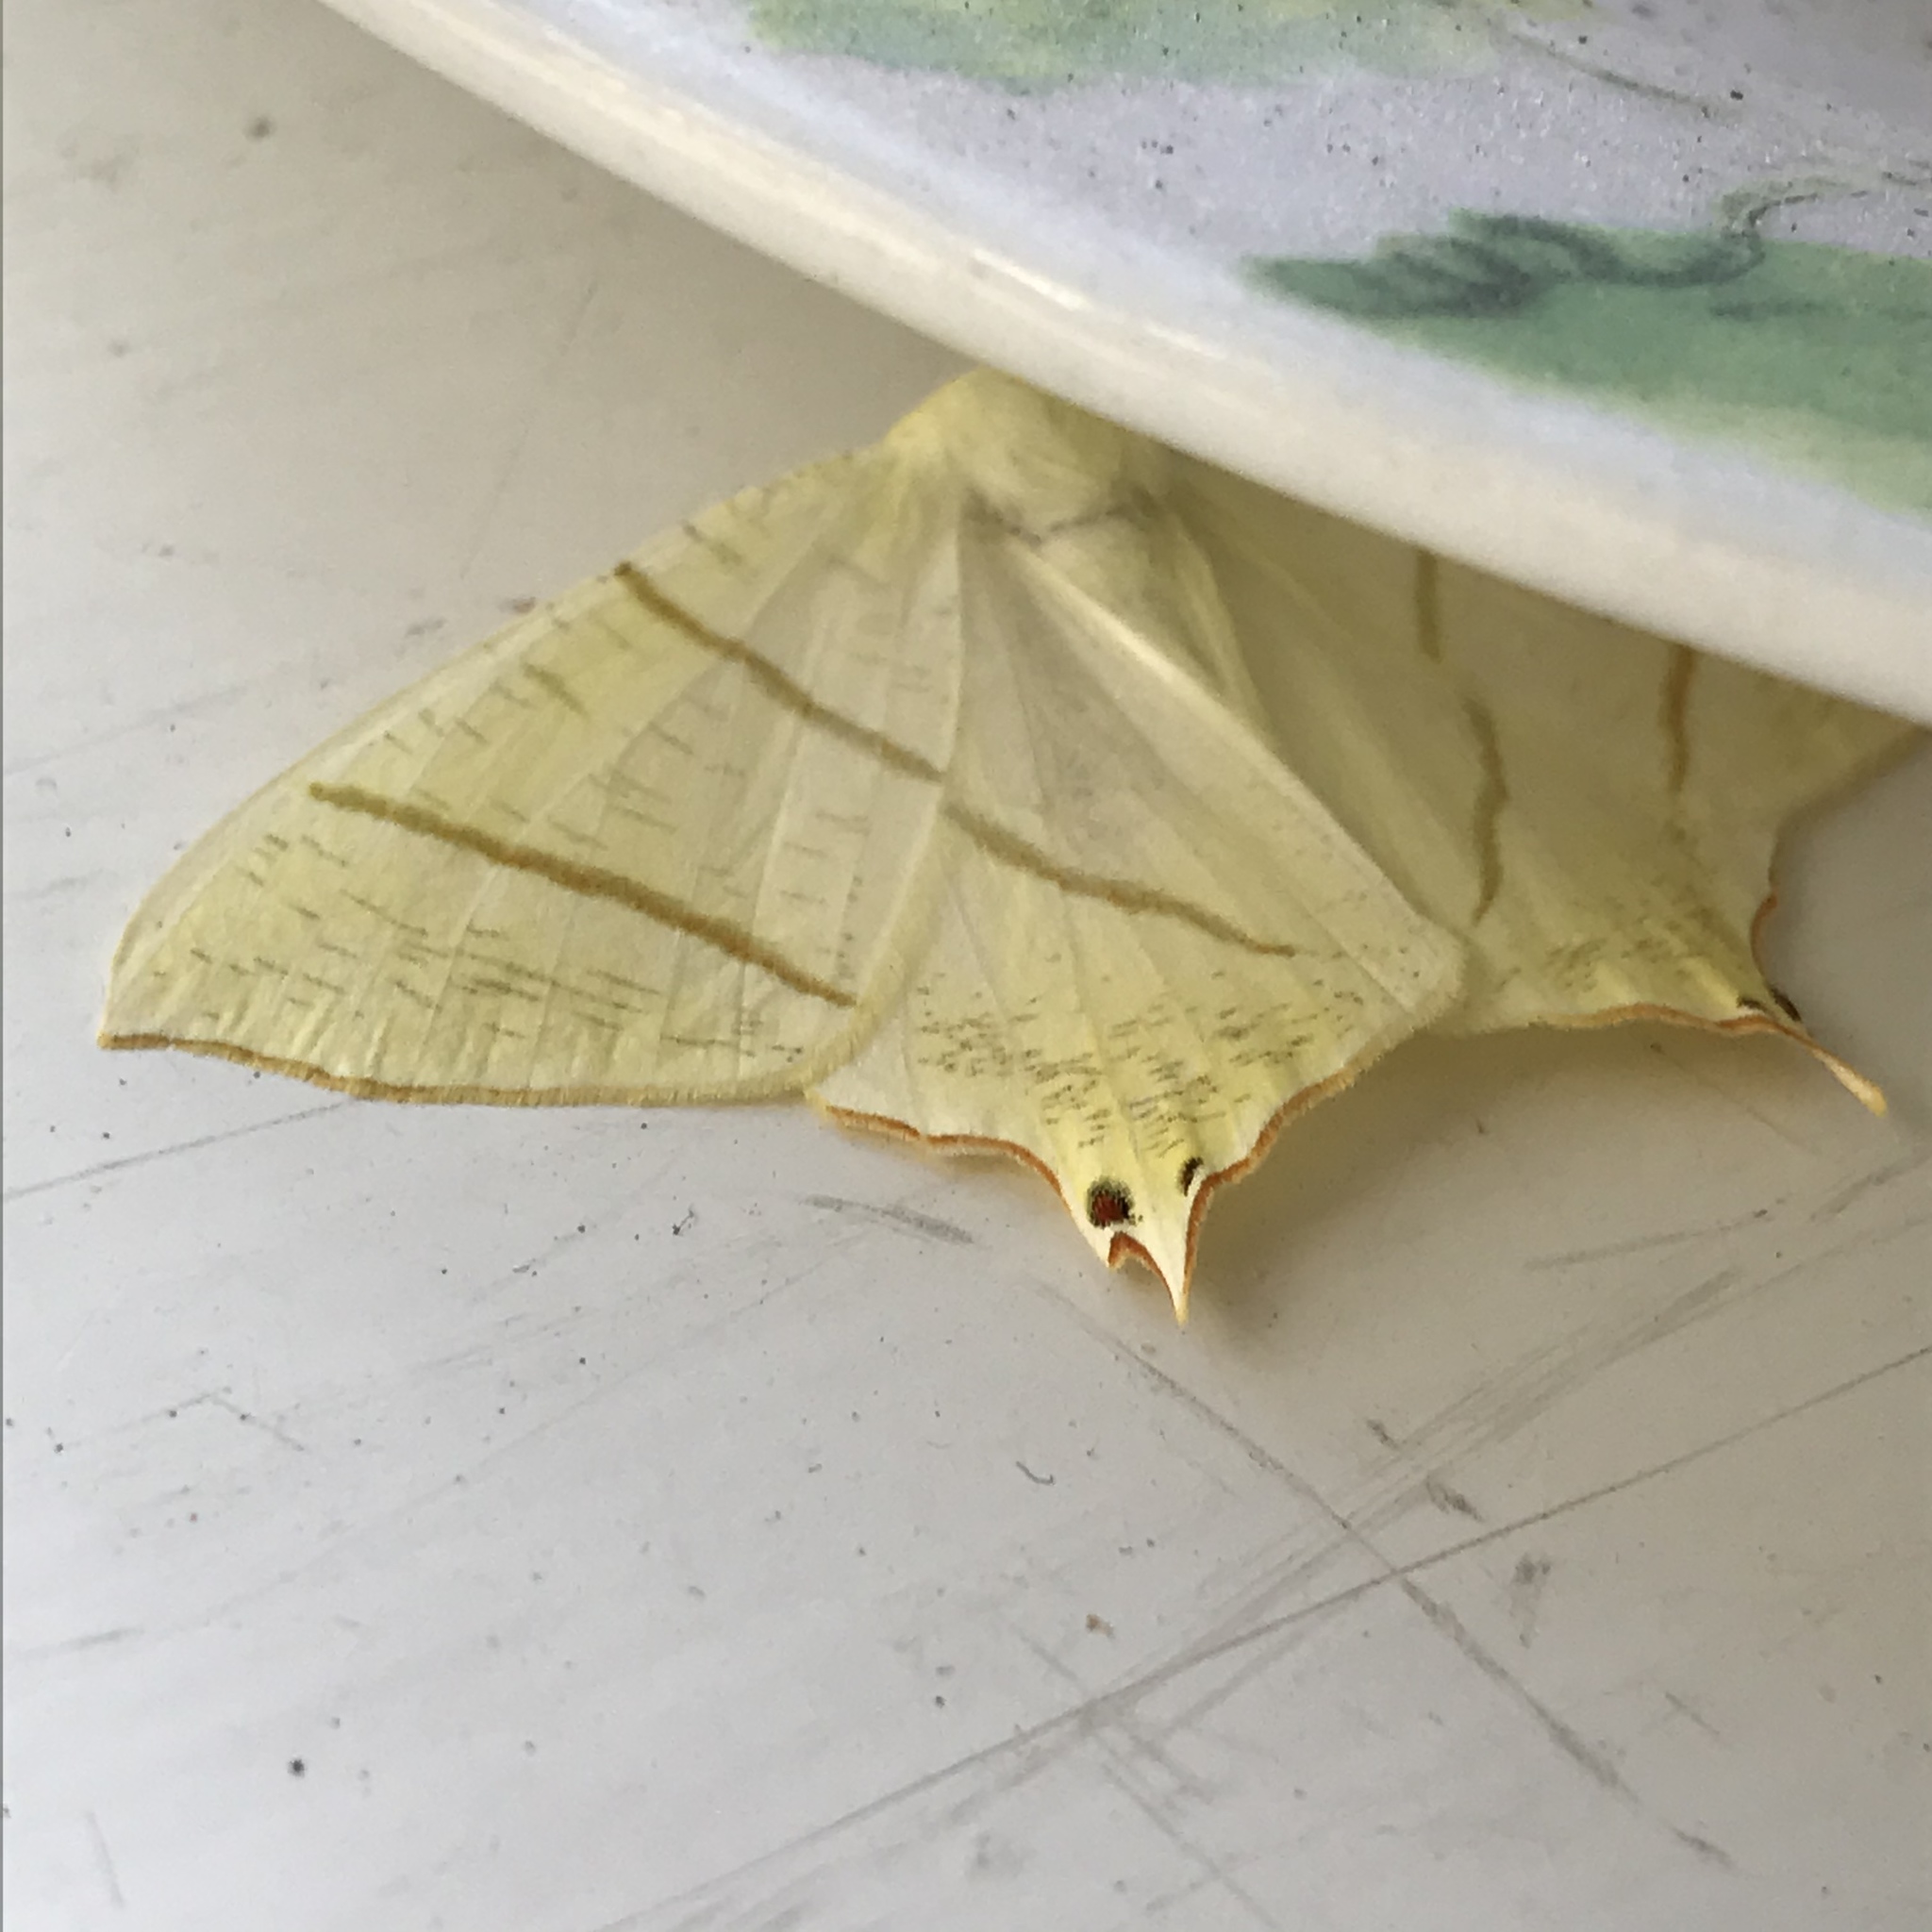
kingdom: Animalia
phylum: Arthropoda
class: Insecta
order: Lepidoptera
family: Geometridae
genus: Ourapteryx
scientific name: Ourapteryx sambucaria
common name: Swallow-tailed moth
